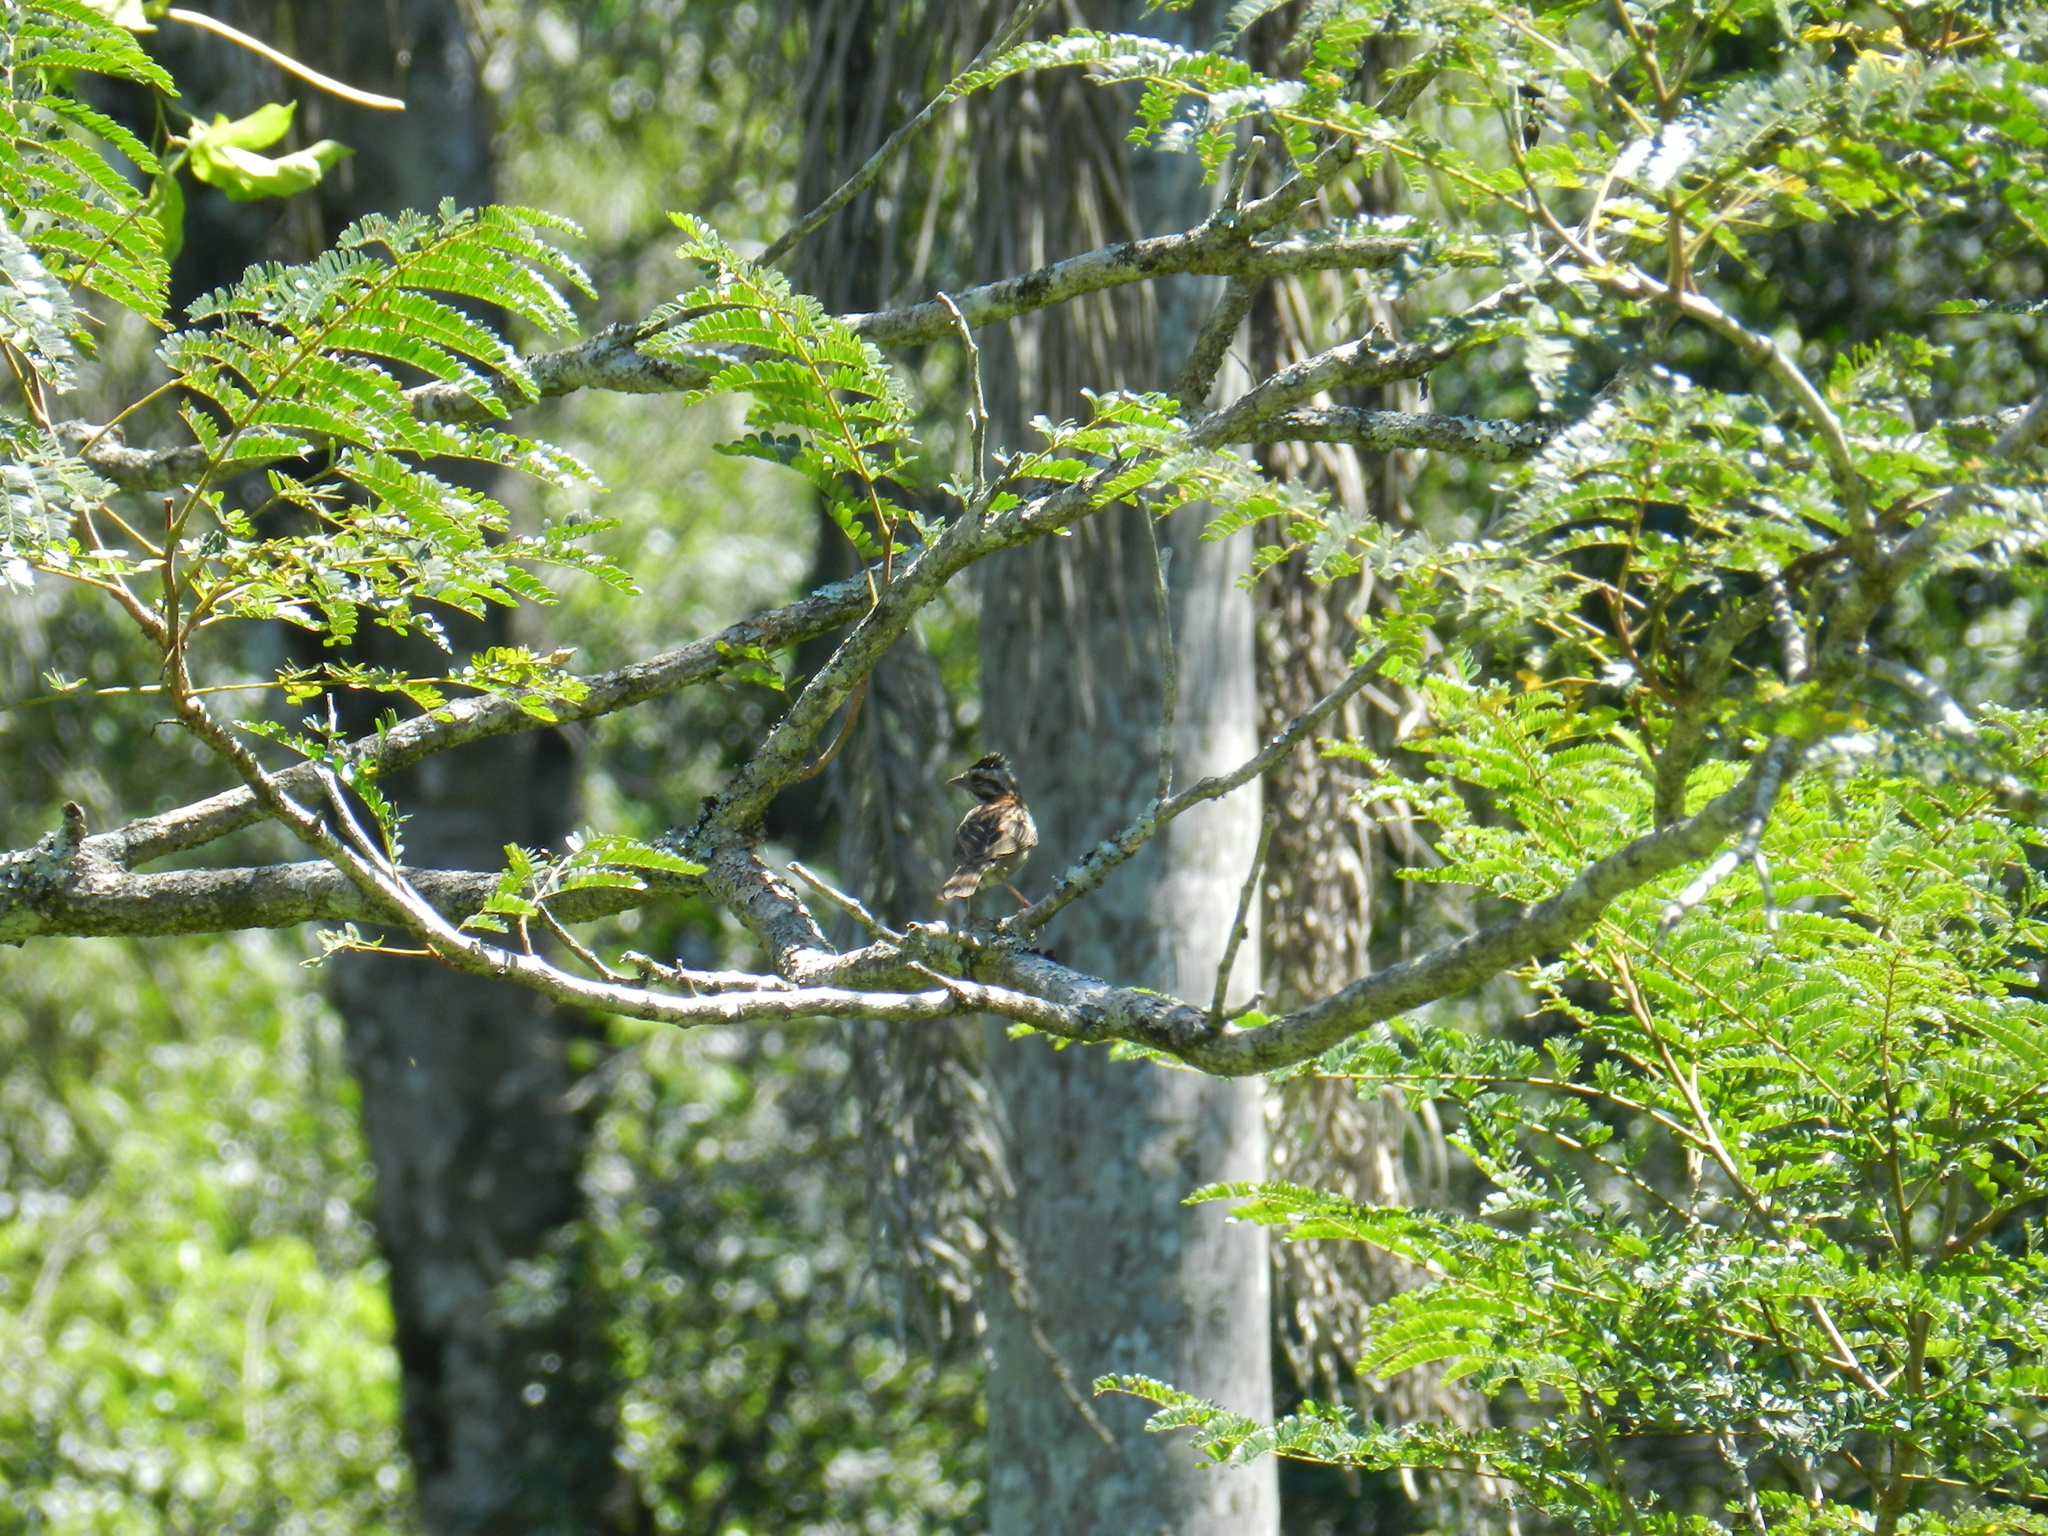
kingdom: Animalia
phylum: Chordata
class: Aves
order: Passeriformes
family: Passerellidae
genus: Zonotrichia
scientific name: Zonotrichia capensis
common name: Rufous-collared sparrow
